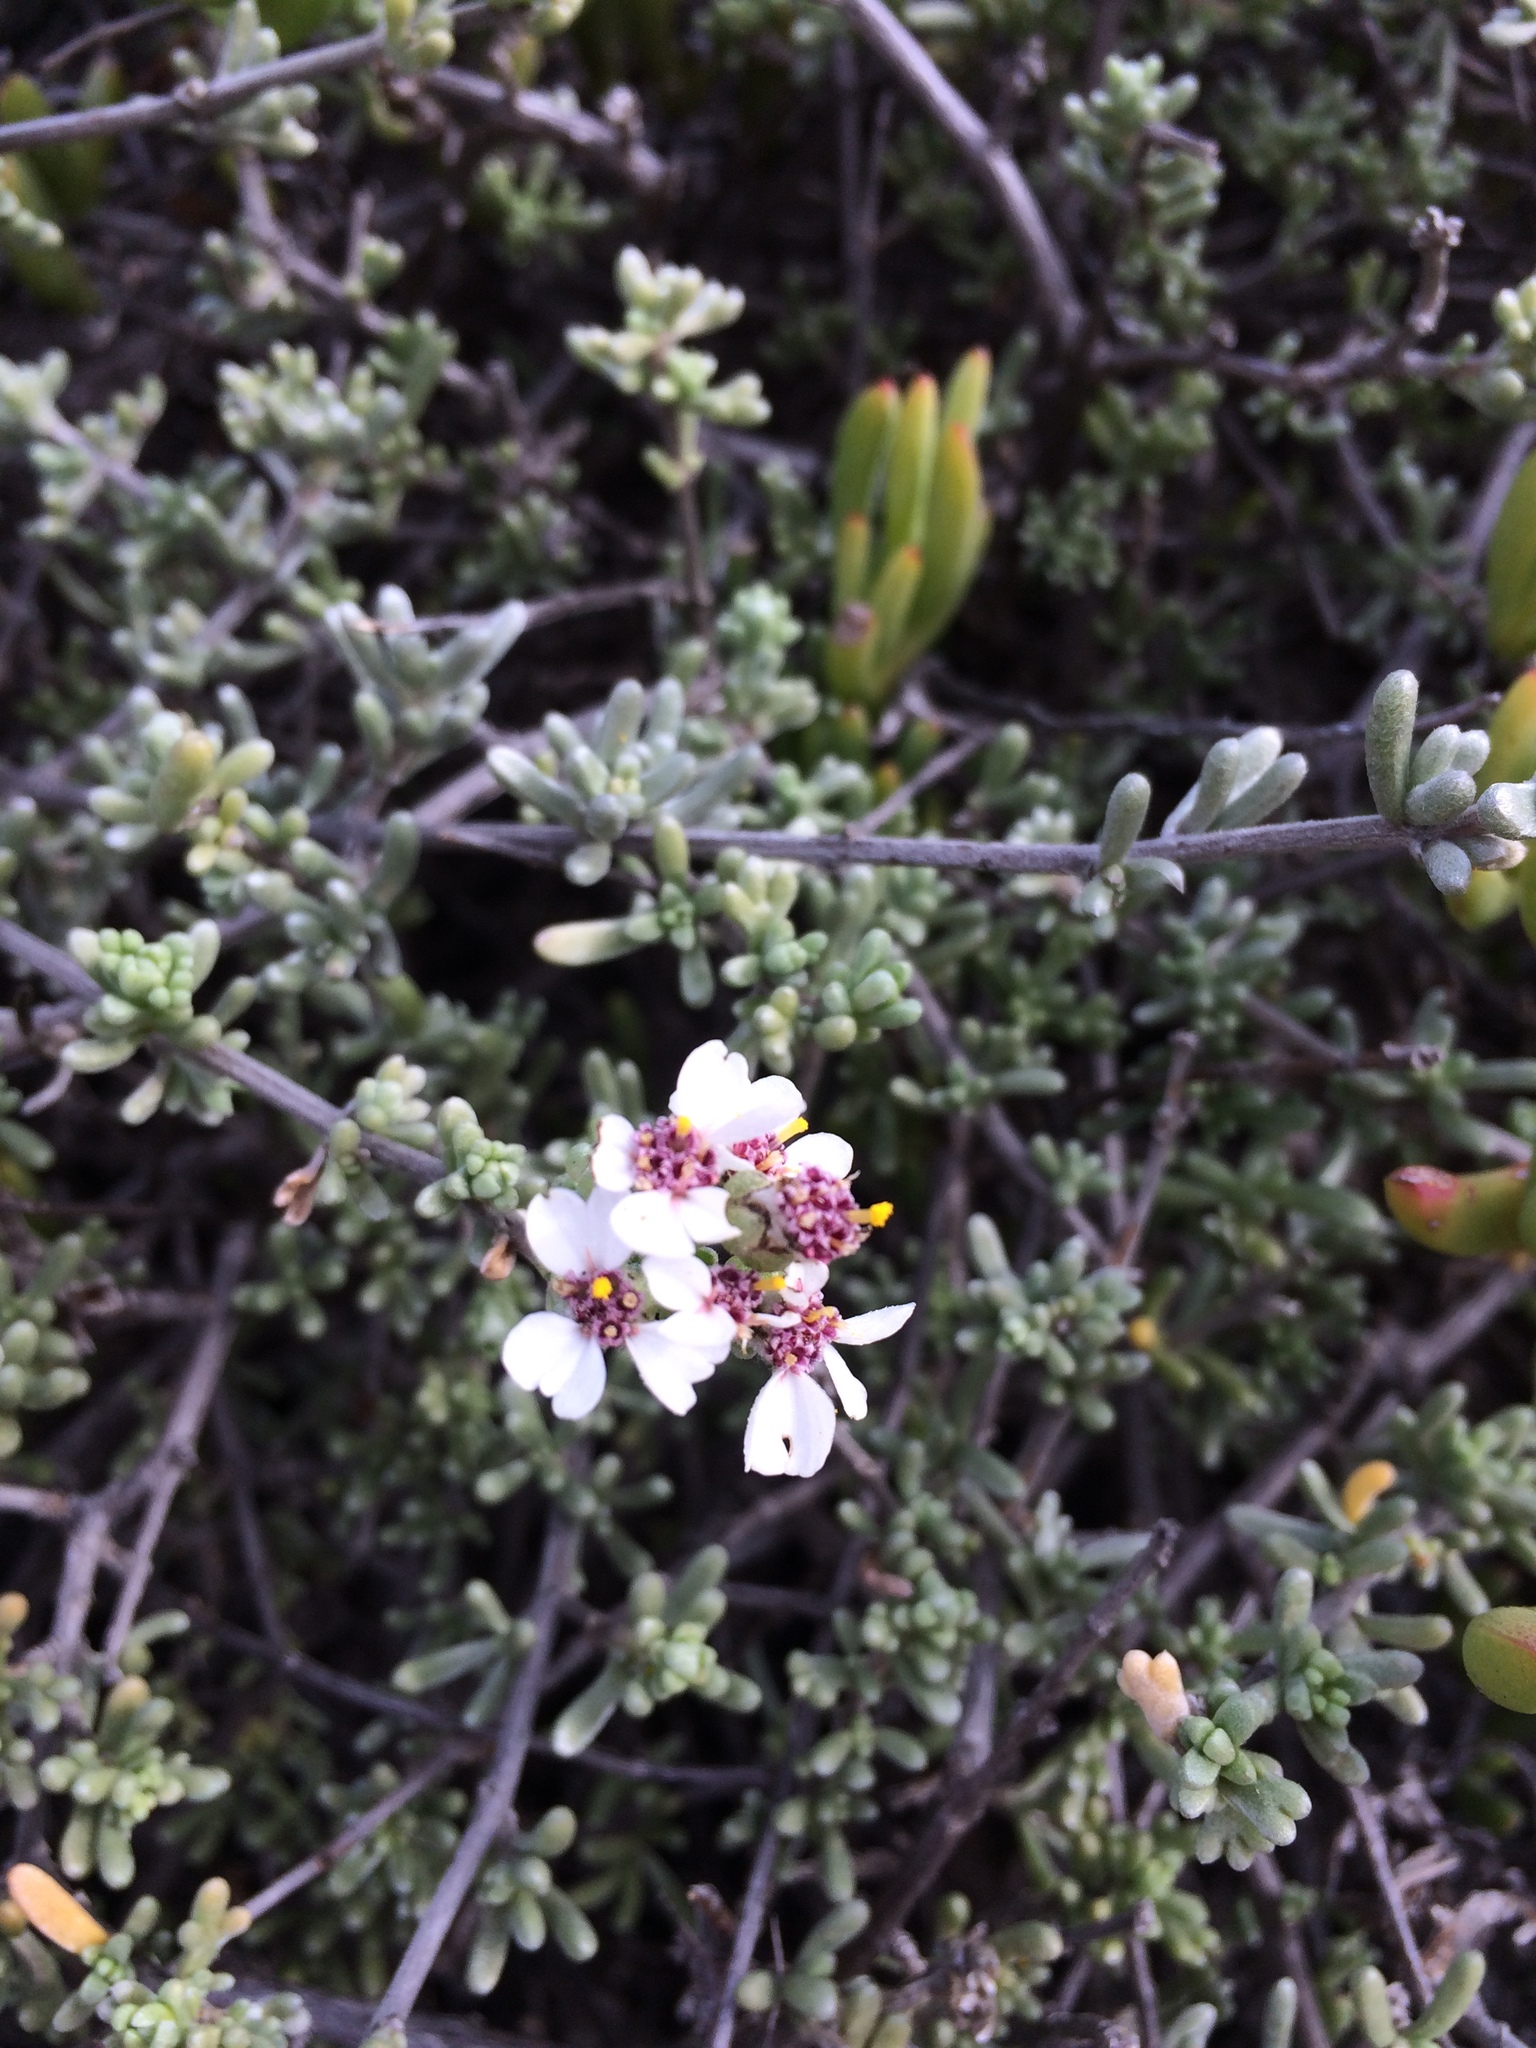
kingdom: Plantae
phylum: Tracheophyta
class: Magnoliopsida
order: Asterales
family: Asteraceae
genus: Eriocephalus
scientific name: Eriocephalus africanus
